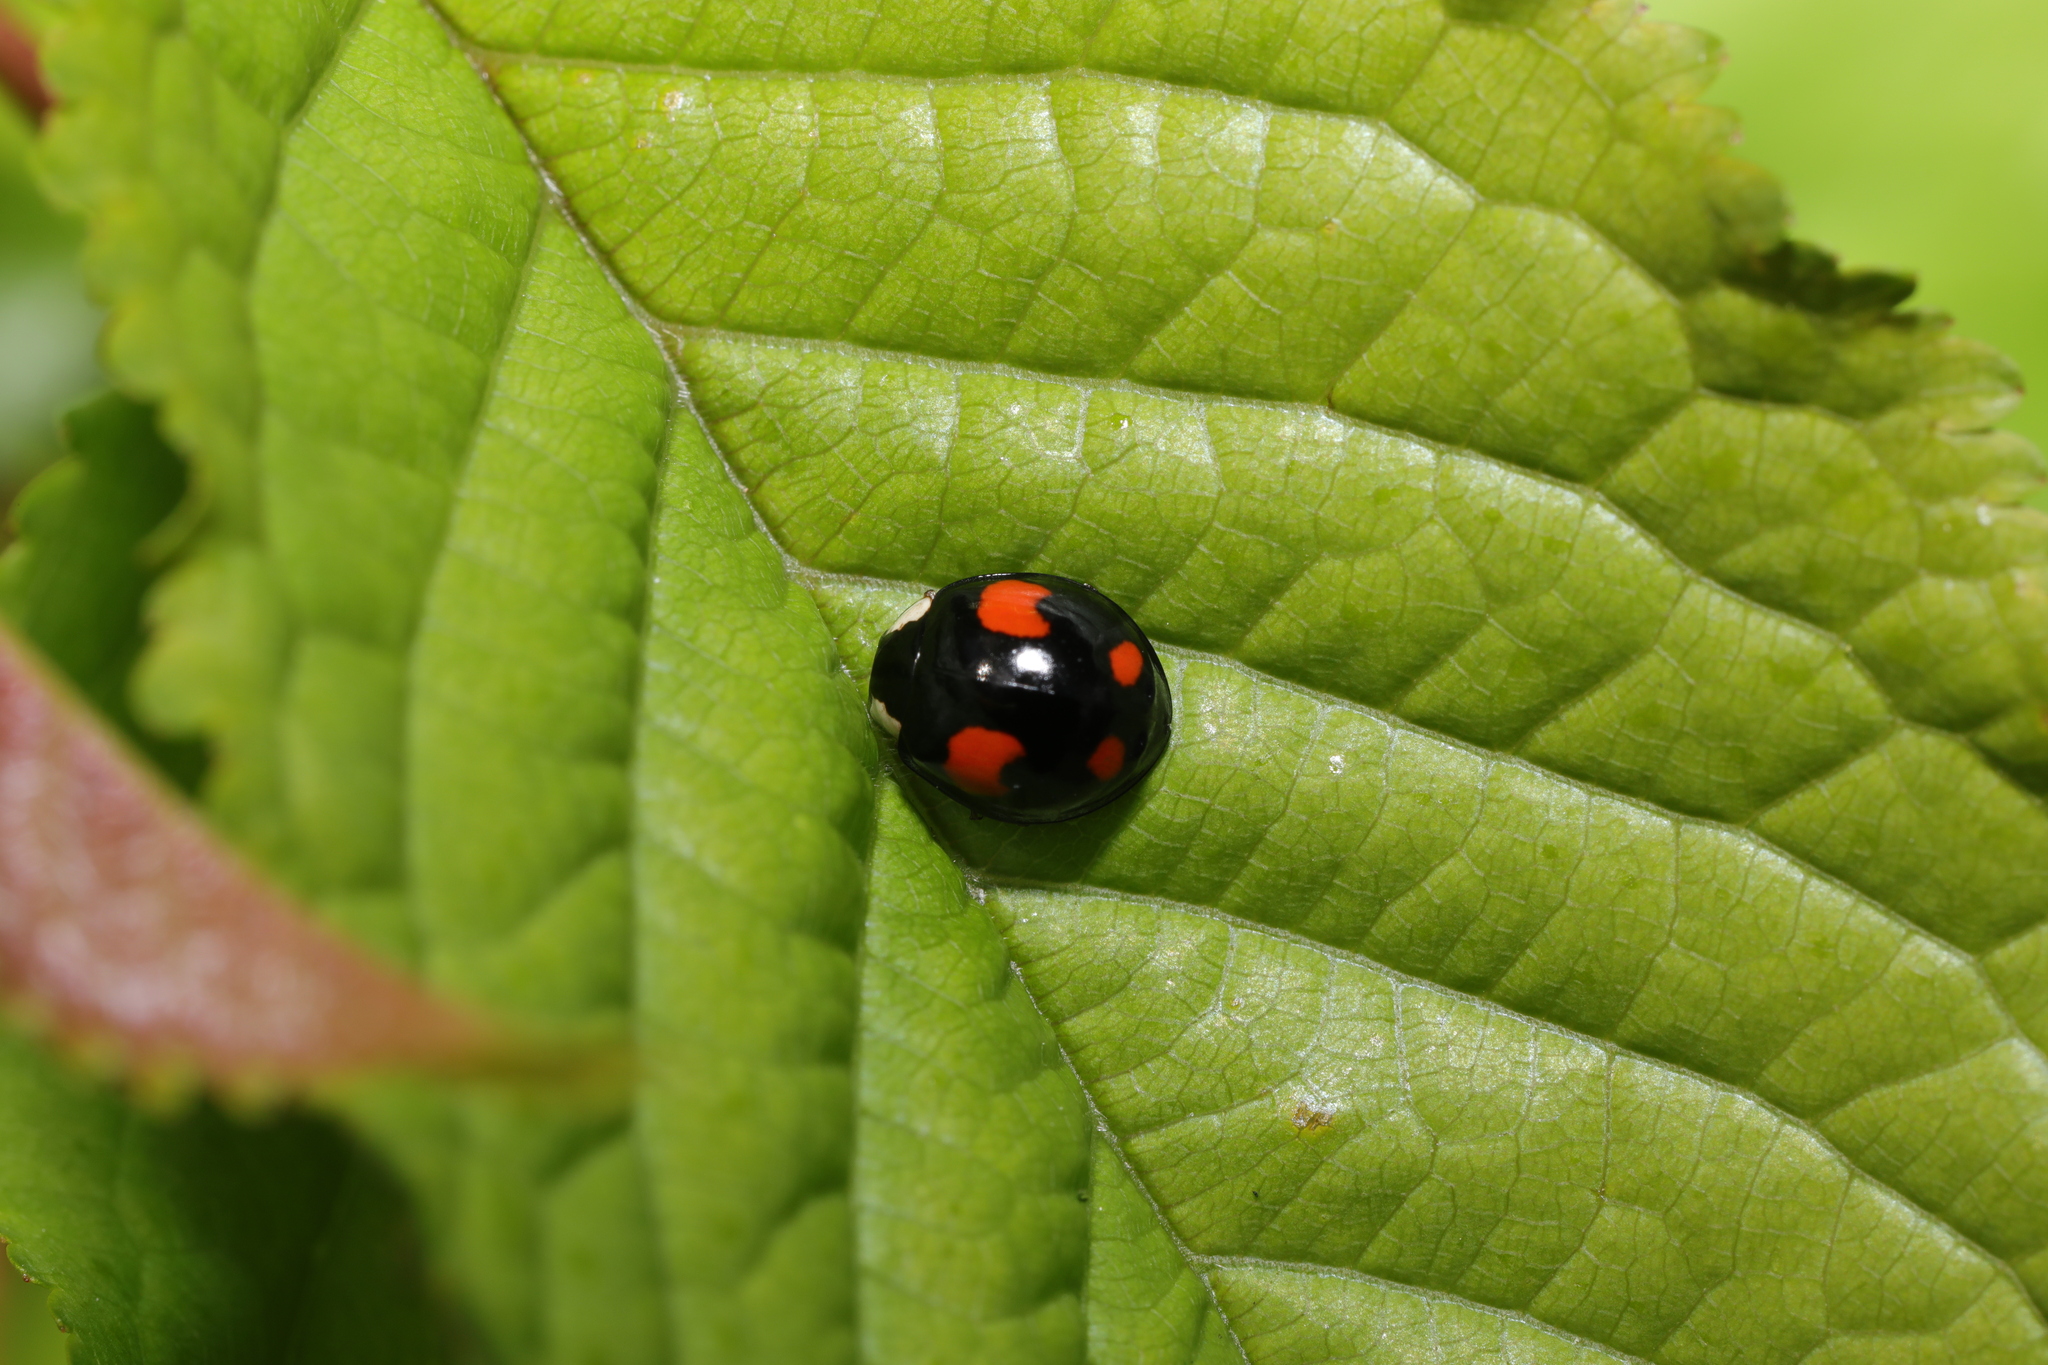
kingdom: Animalia
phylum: Arthropoda
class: Insecta
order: Coleoptera
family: Coccinellidae
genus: Harmonia
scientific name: Harmonia axyridis
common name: Harlequin ladybird
